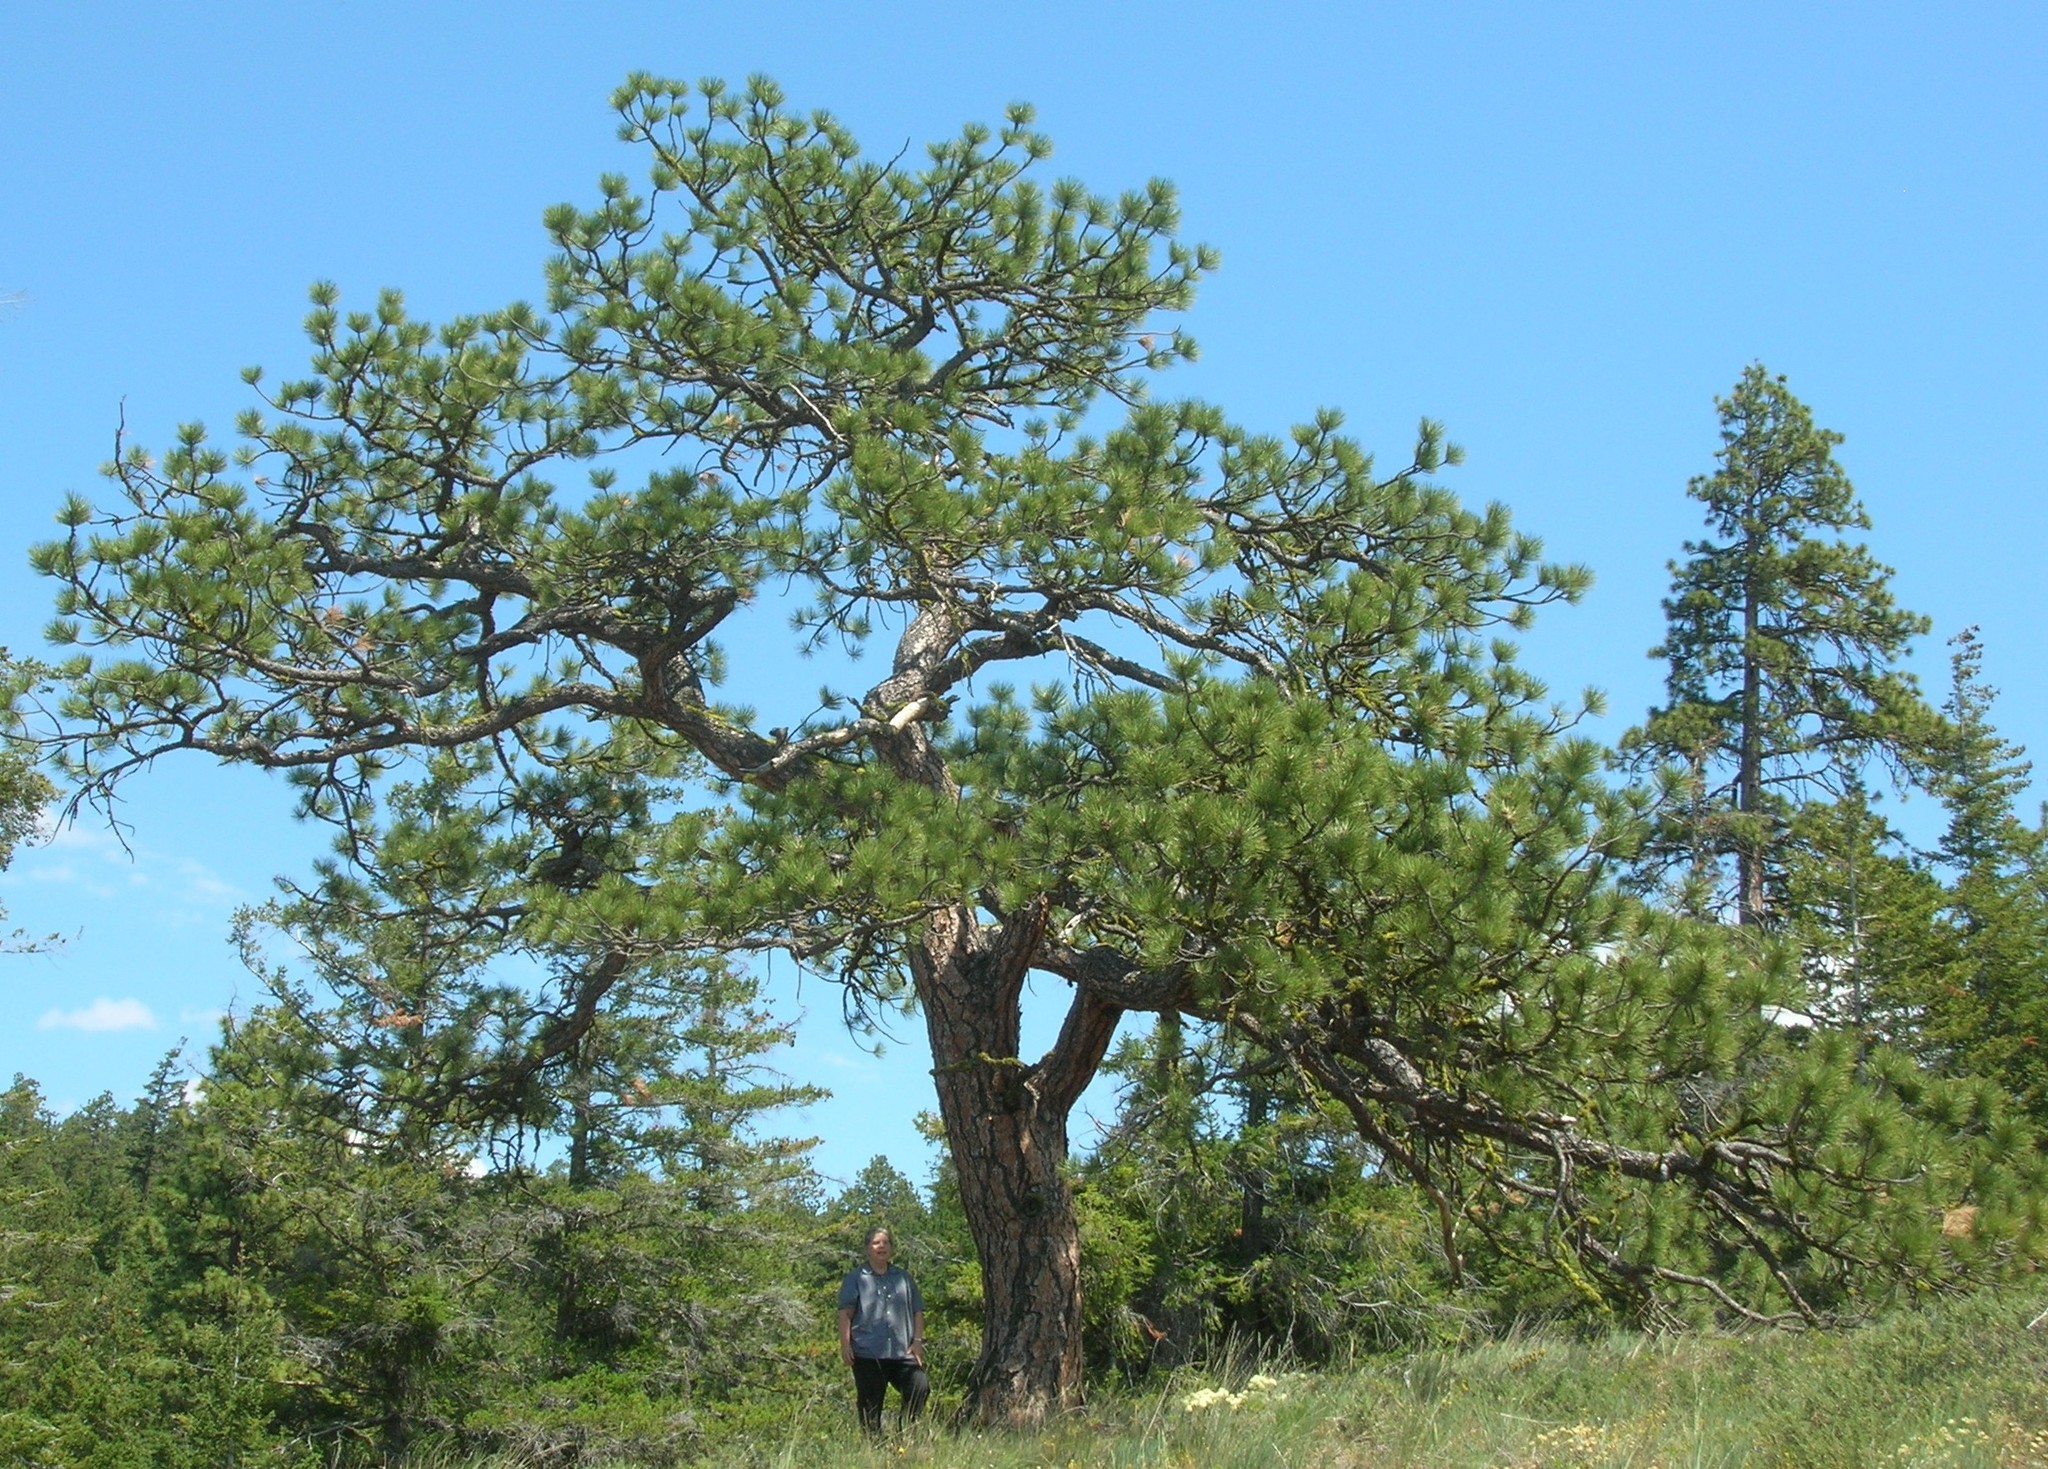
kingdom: Plantae
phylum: Tracheophyta
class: Pinopsida
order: Pinales
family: Pinaceae
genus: Pinus
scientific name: Pinus ponderosa
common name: Western yellow-pine
